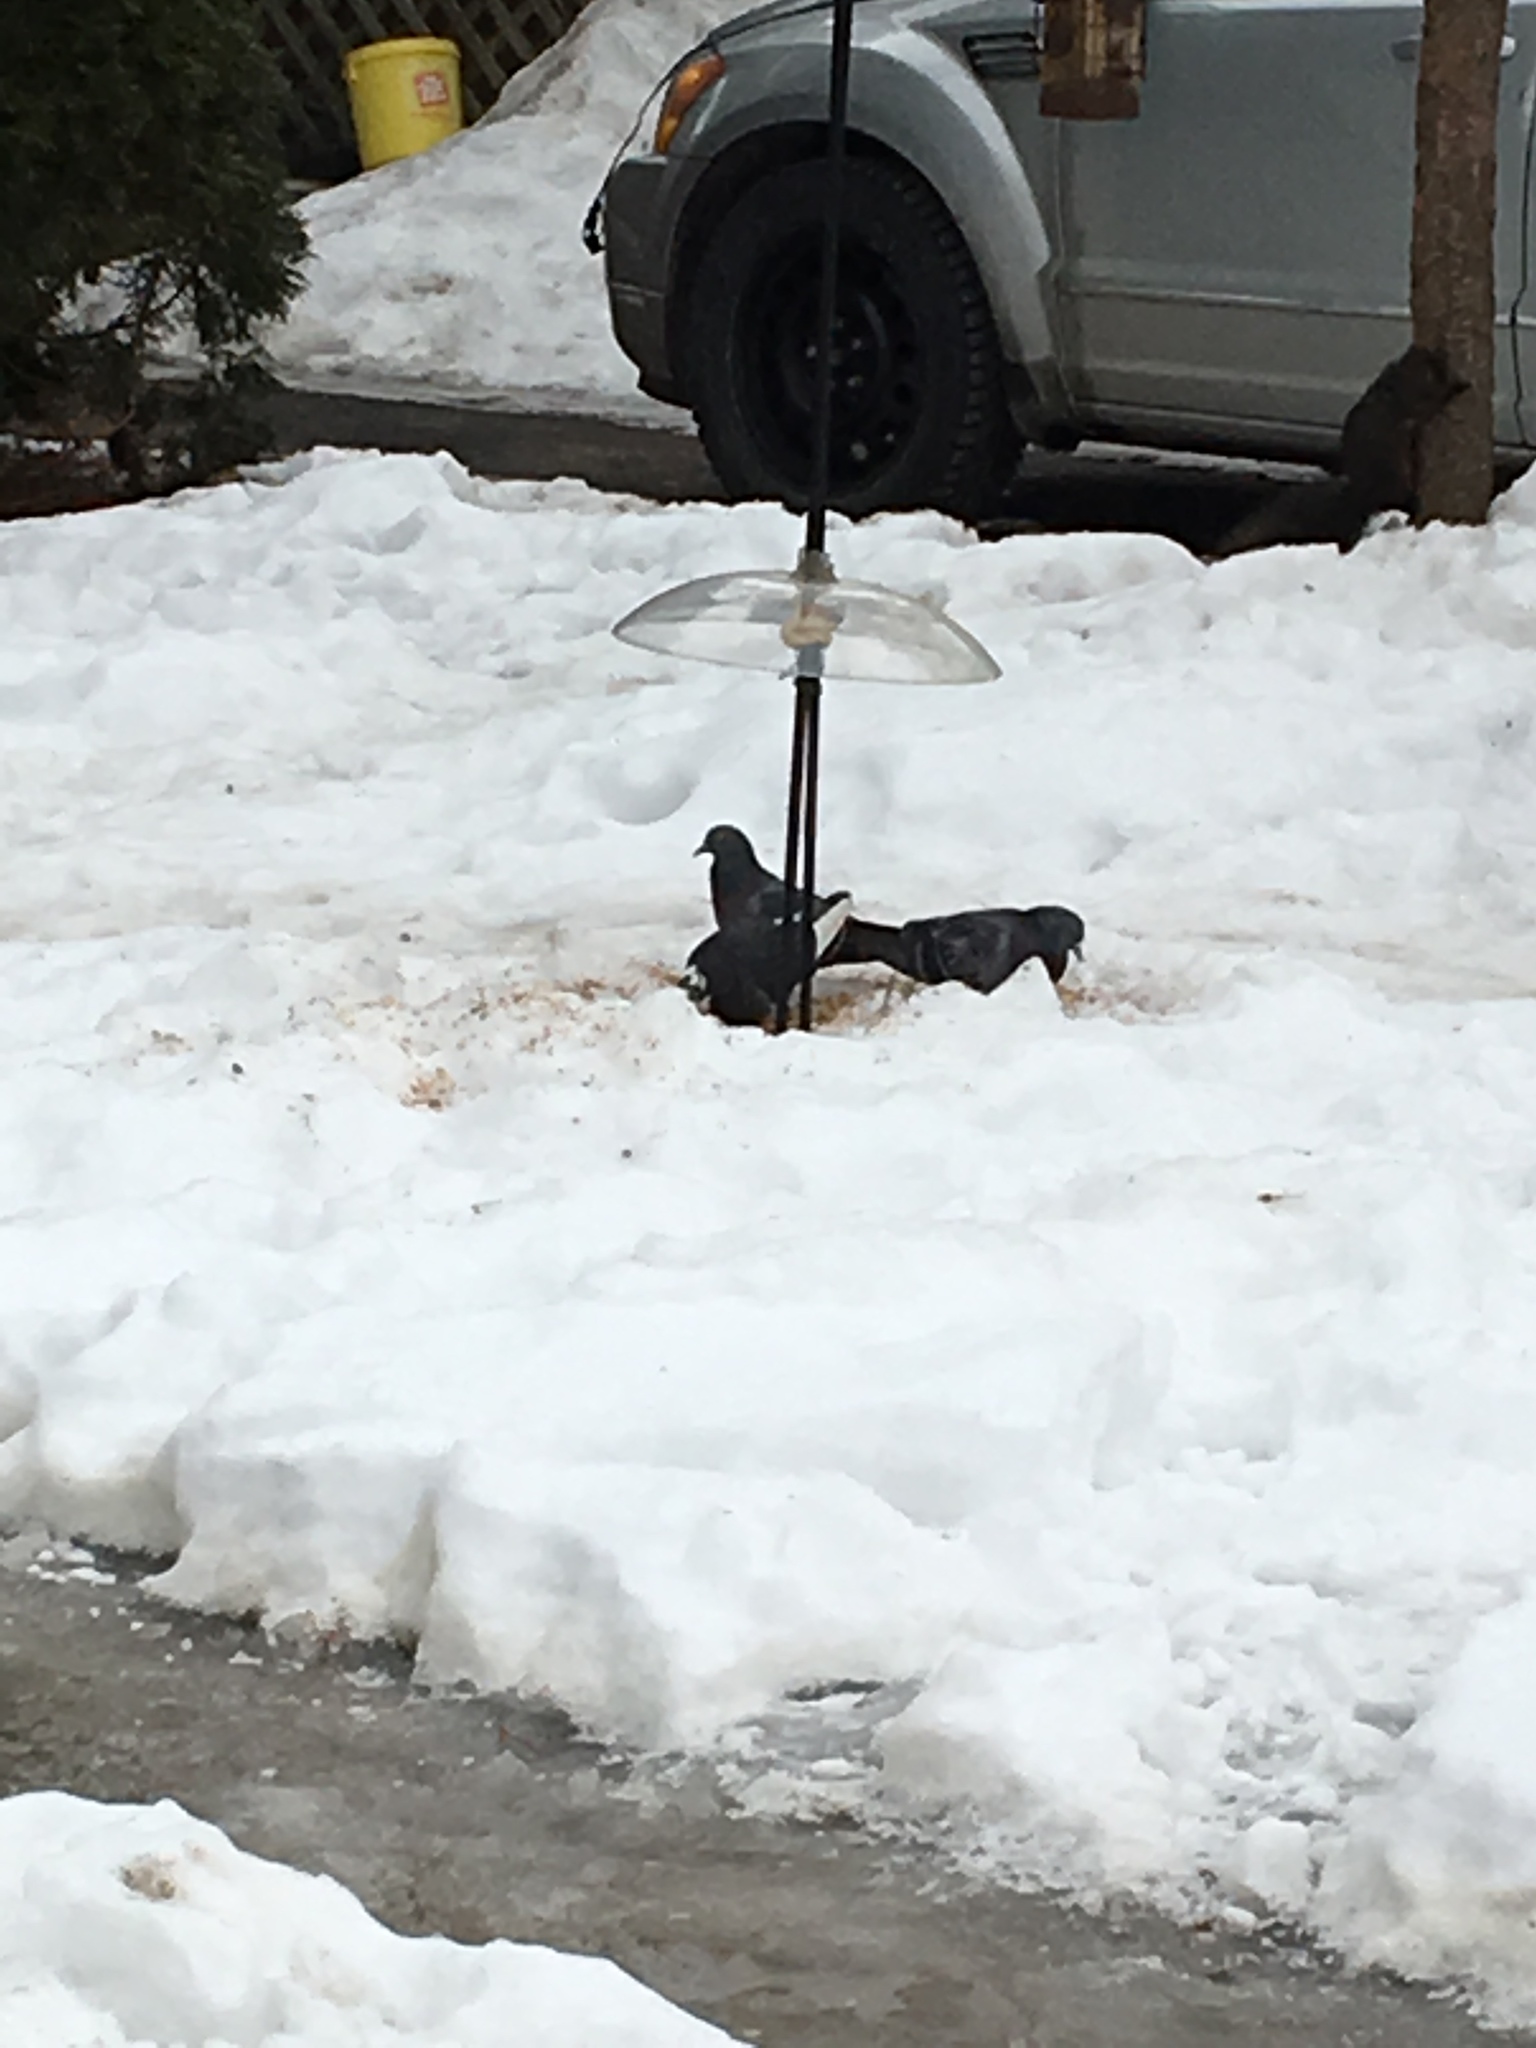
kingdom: Animalia
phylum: Chordata
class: Aves
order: Columbiformes
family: Columbidae
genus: Columba
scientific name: Columba livia
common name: Rock pigeon
